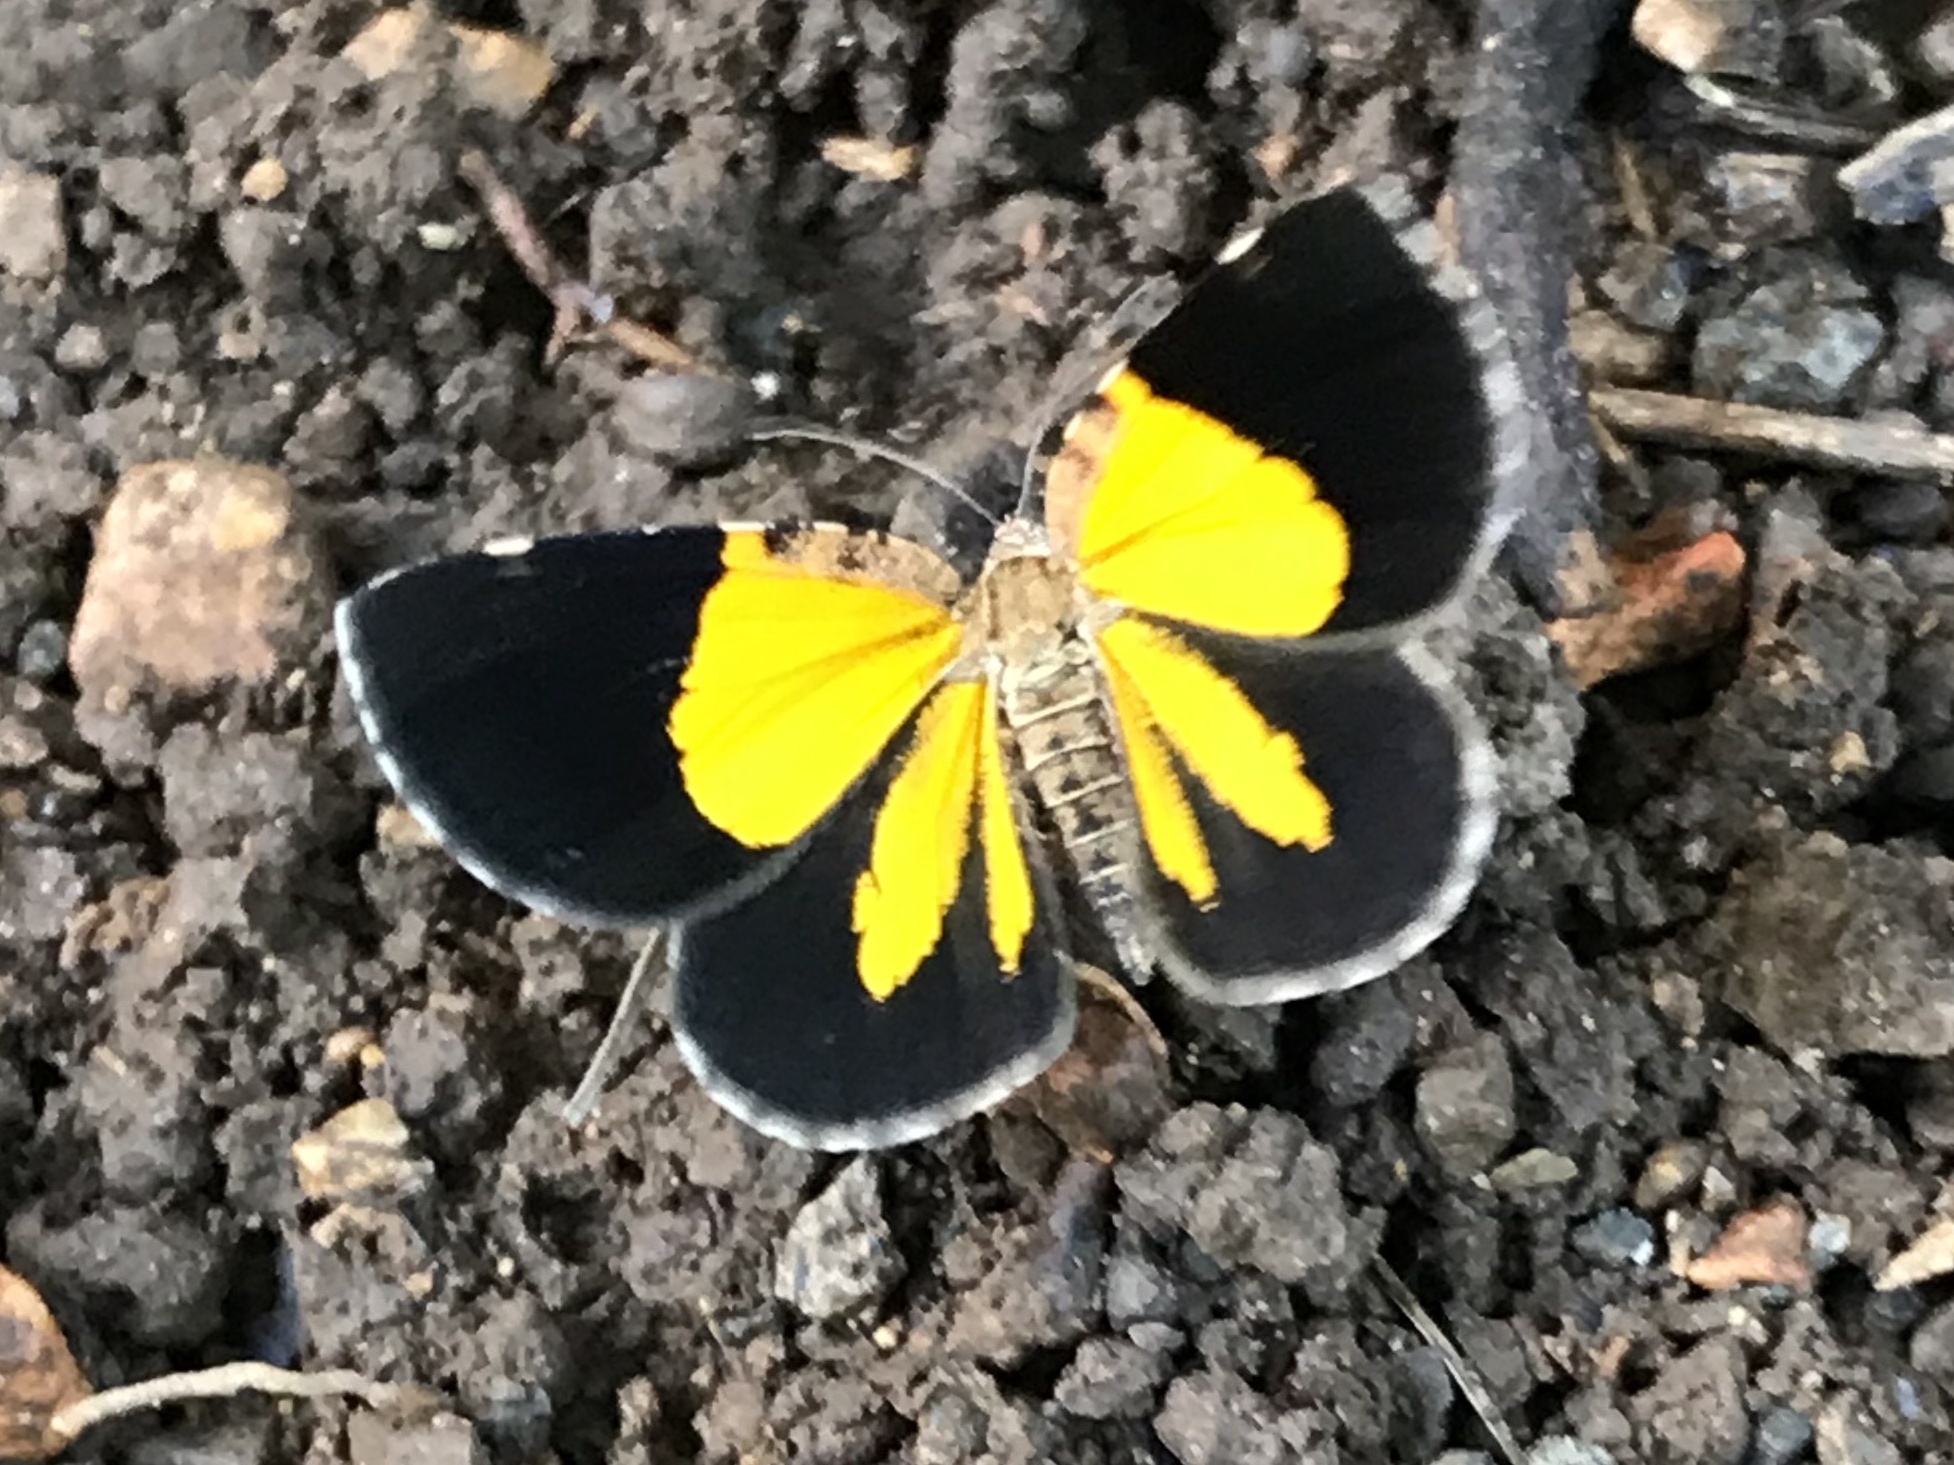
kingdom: Animalia
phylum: Arthropoda
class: Insecta
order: Lepidoptera
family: Geometridae
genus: Heterusia
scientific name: Heterusia atalantata
